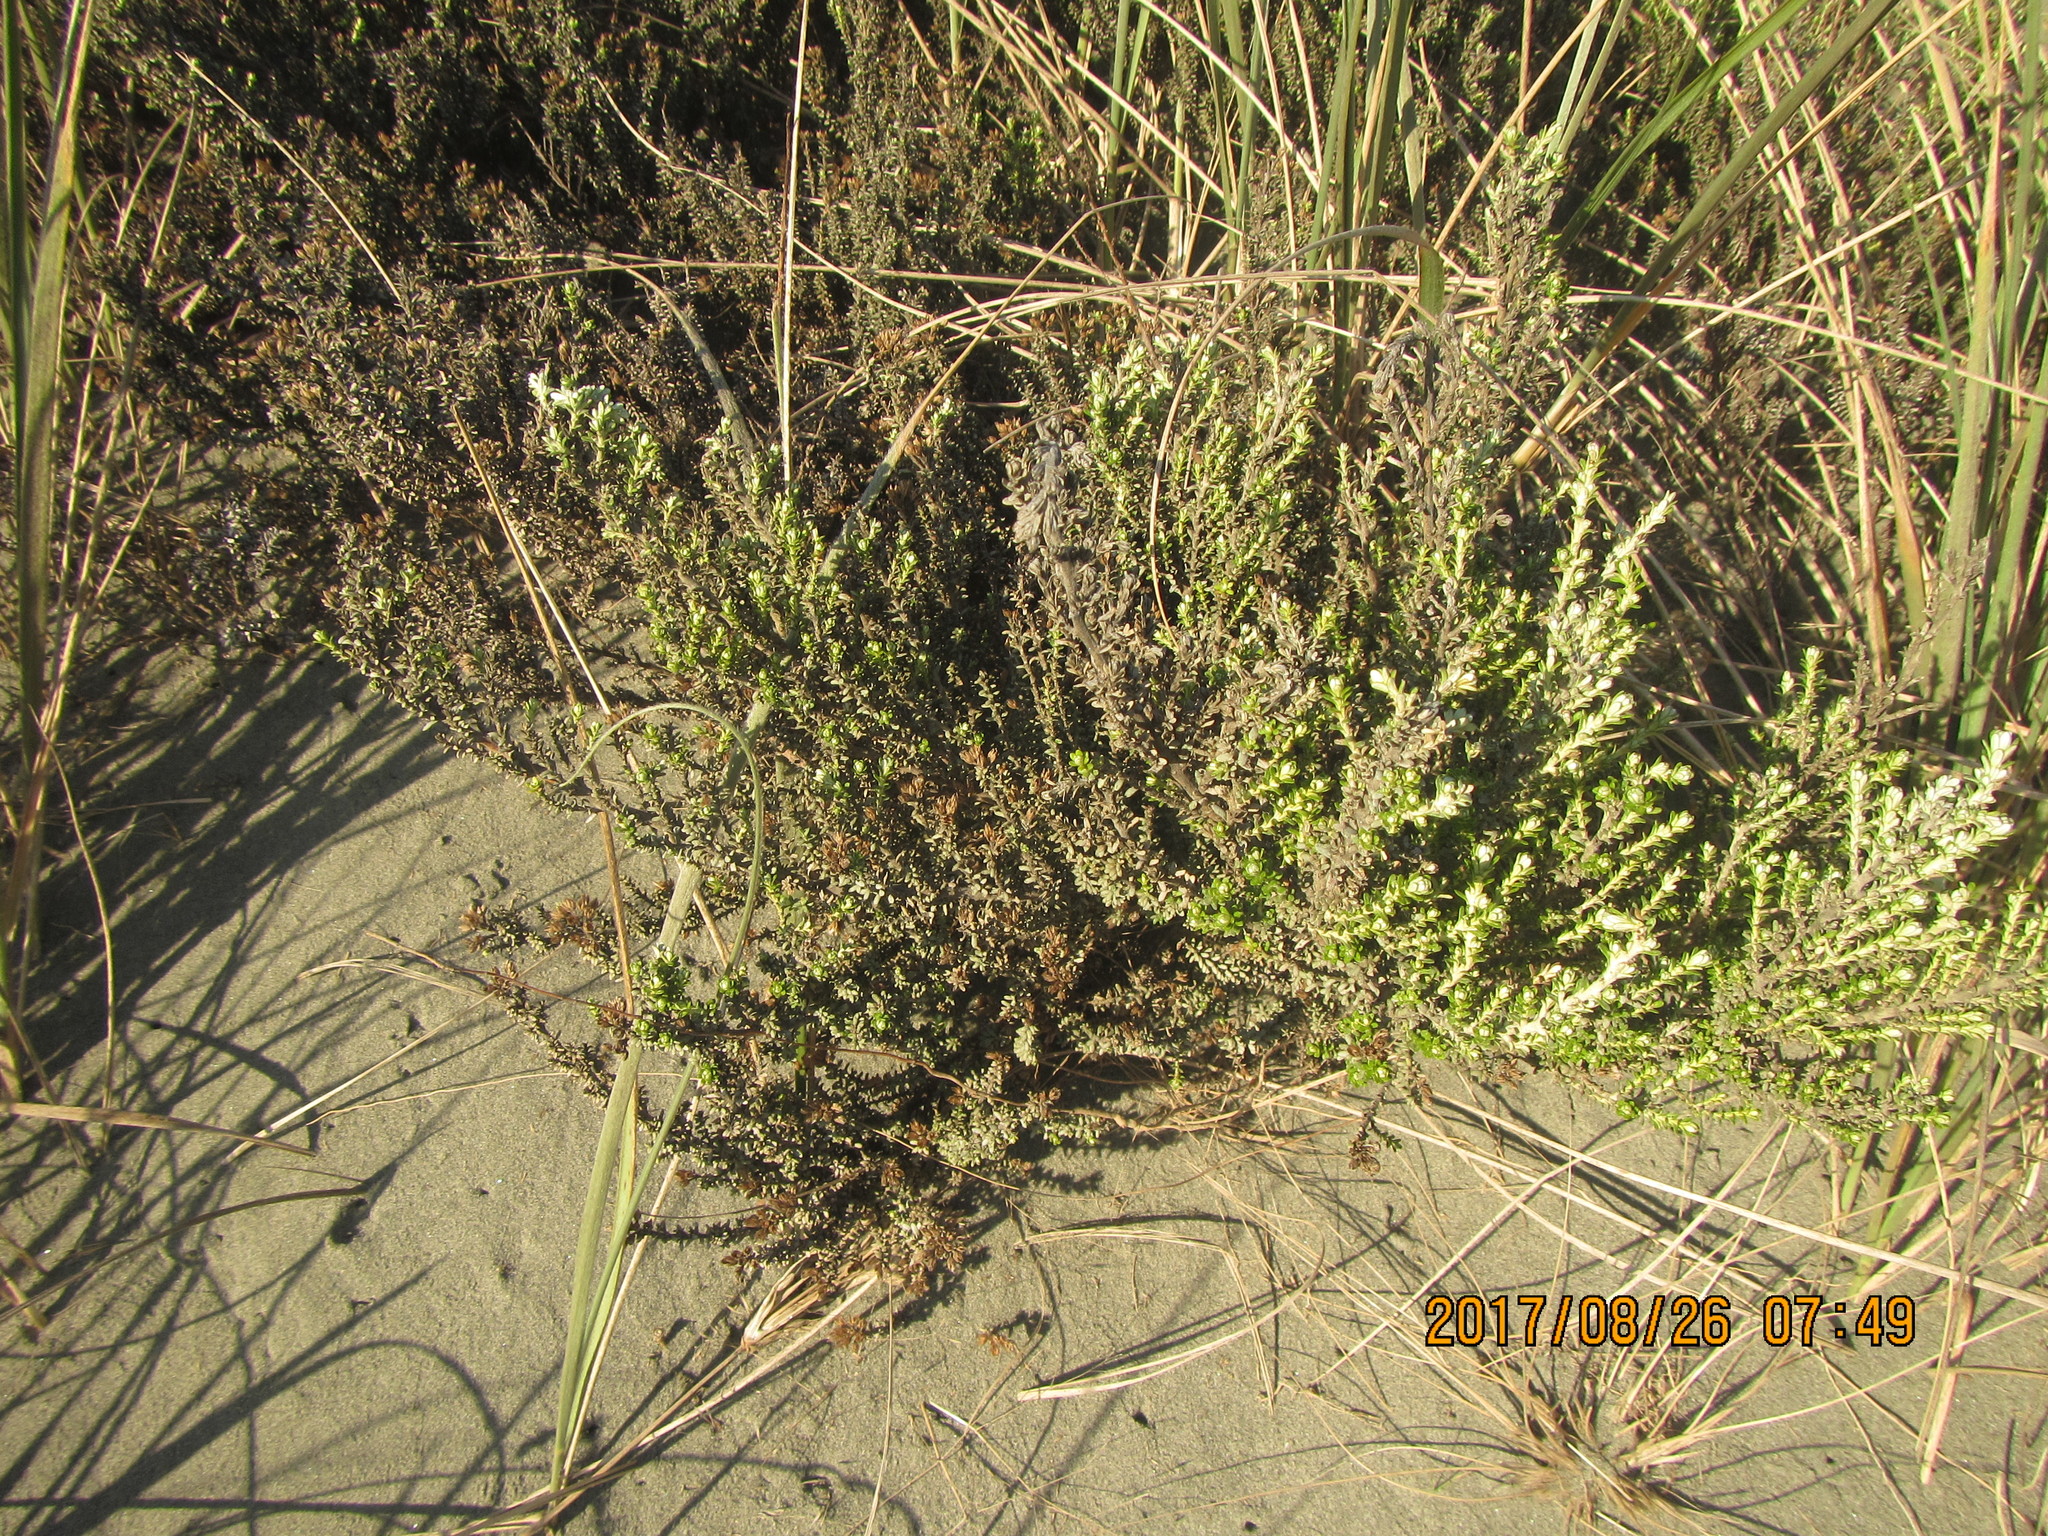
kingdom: Plantae
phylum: Tracheophyta
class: Magnoliopsida
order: Asterales
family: Asteraceae
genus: Ozothamnus
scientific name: Ozothamnus leptophyllus
